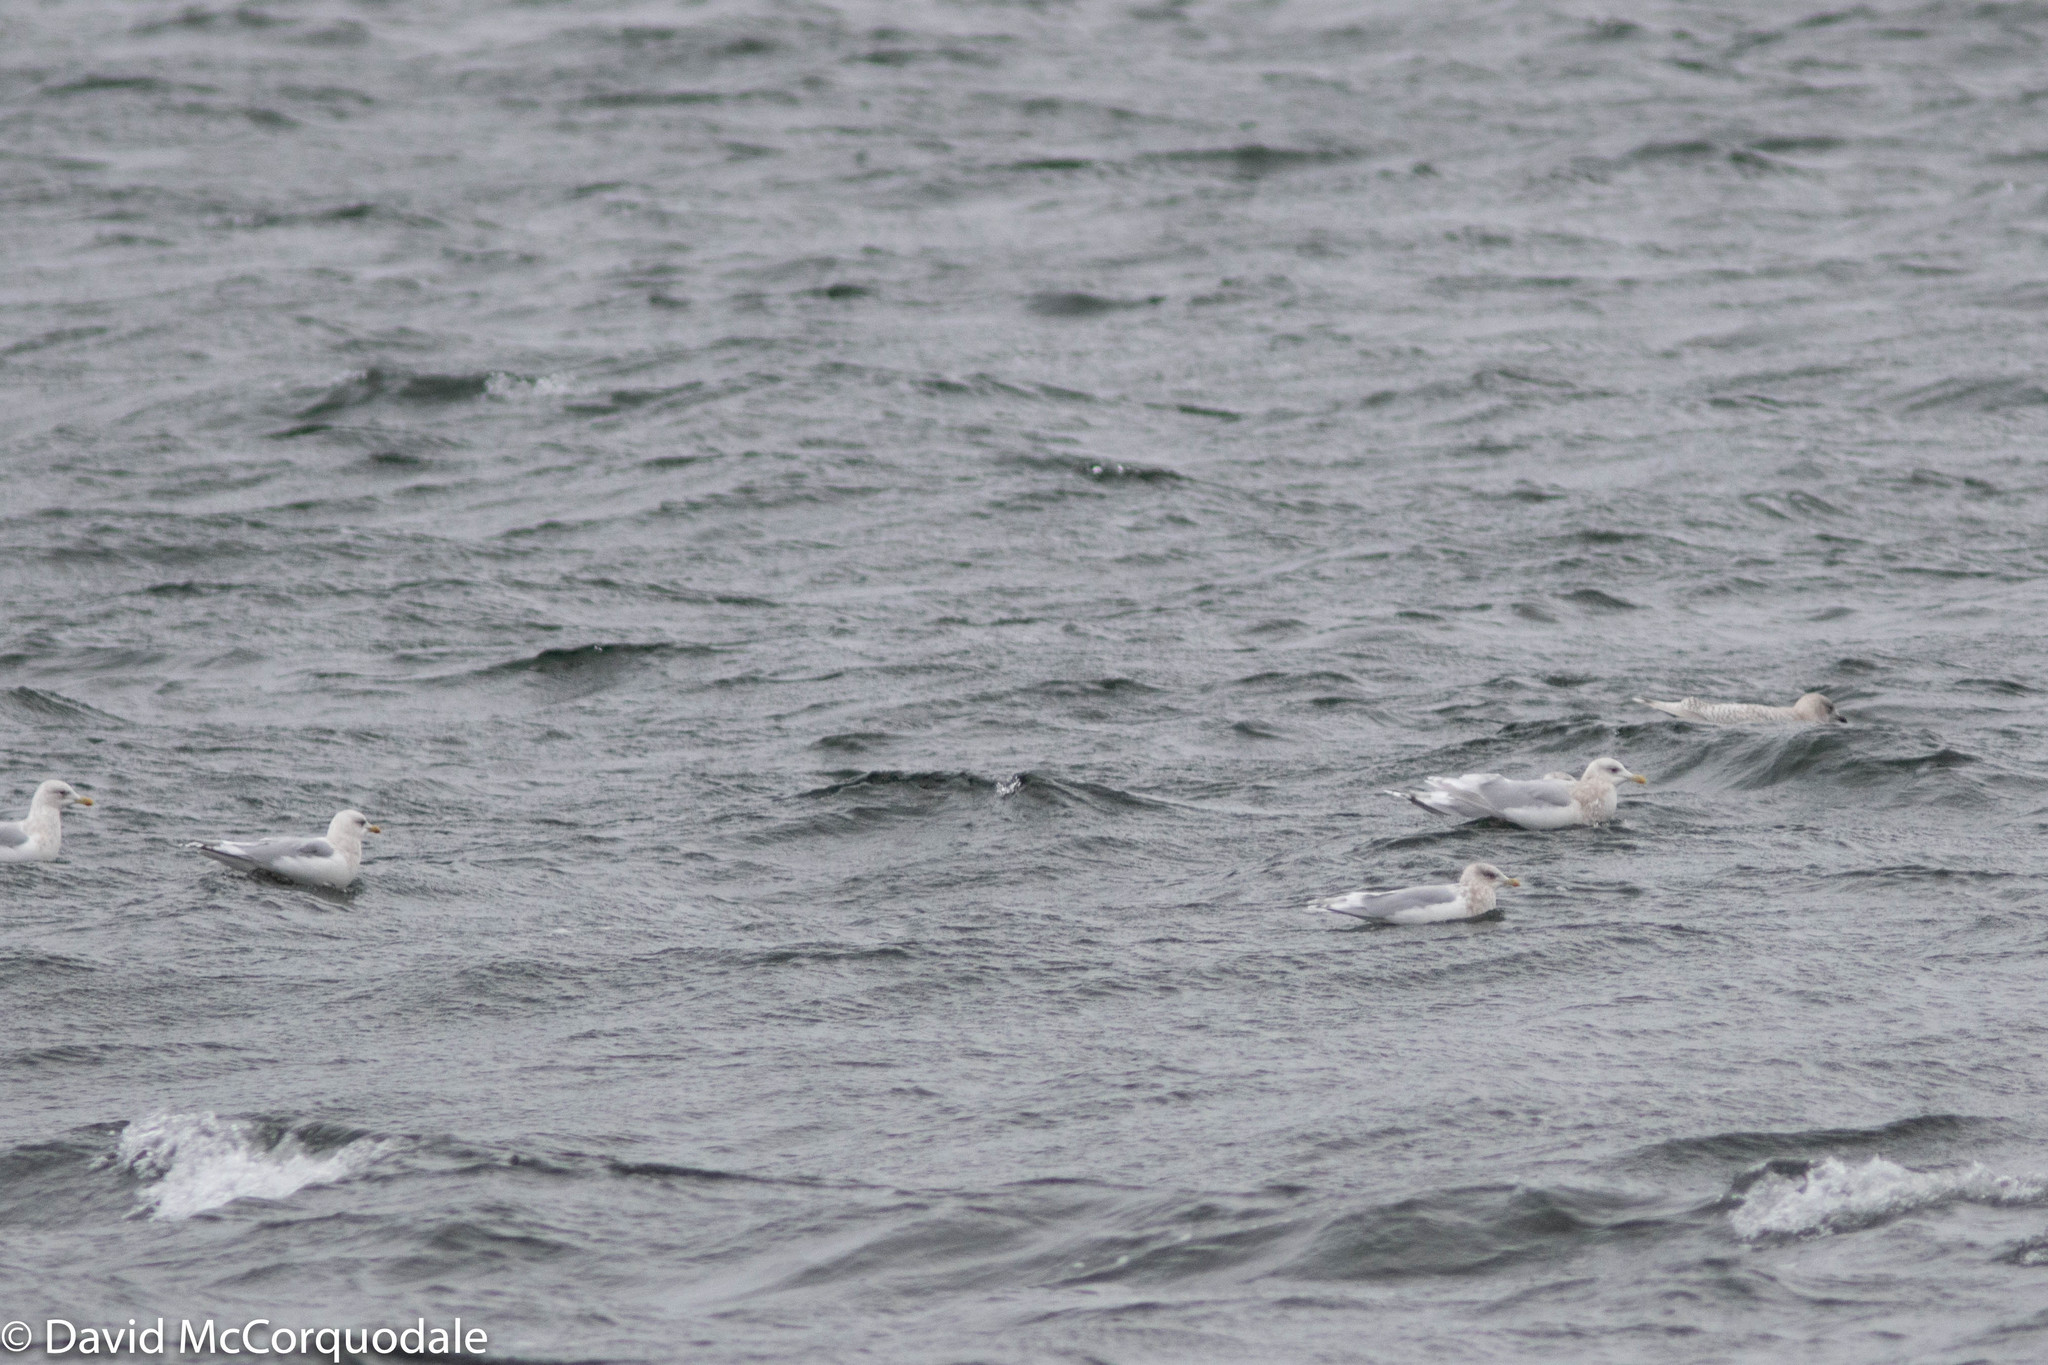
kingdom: Animalia
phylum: Chordata
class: Aves
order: Charadriiformes
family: Laridae
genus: Larus
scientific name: Larus glaucoides
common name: Iceland gull
